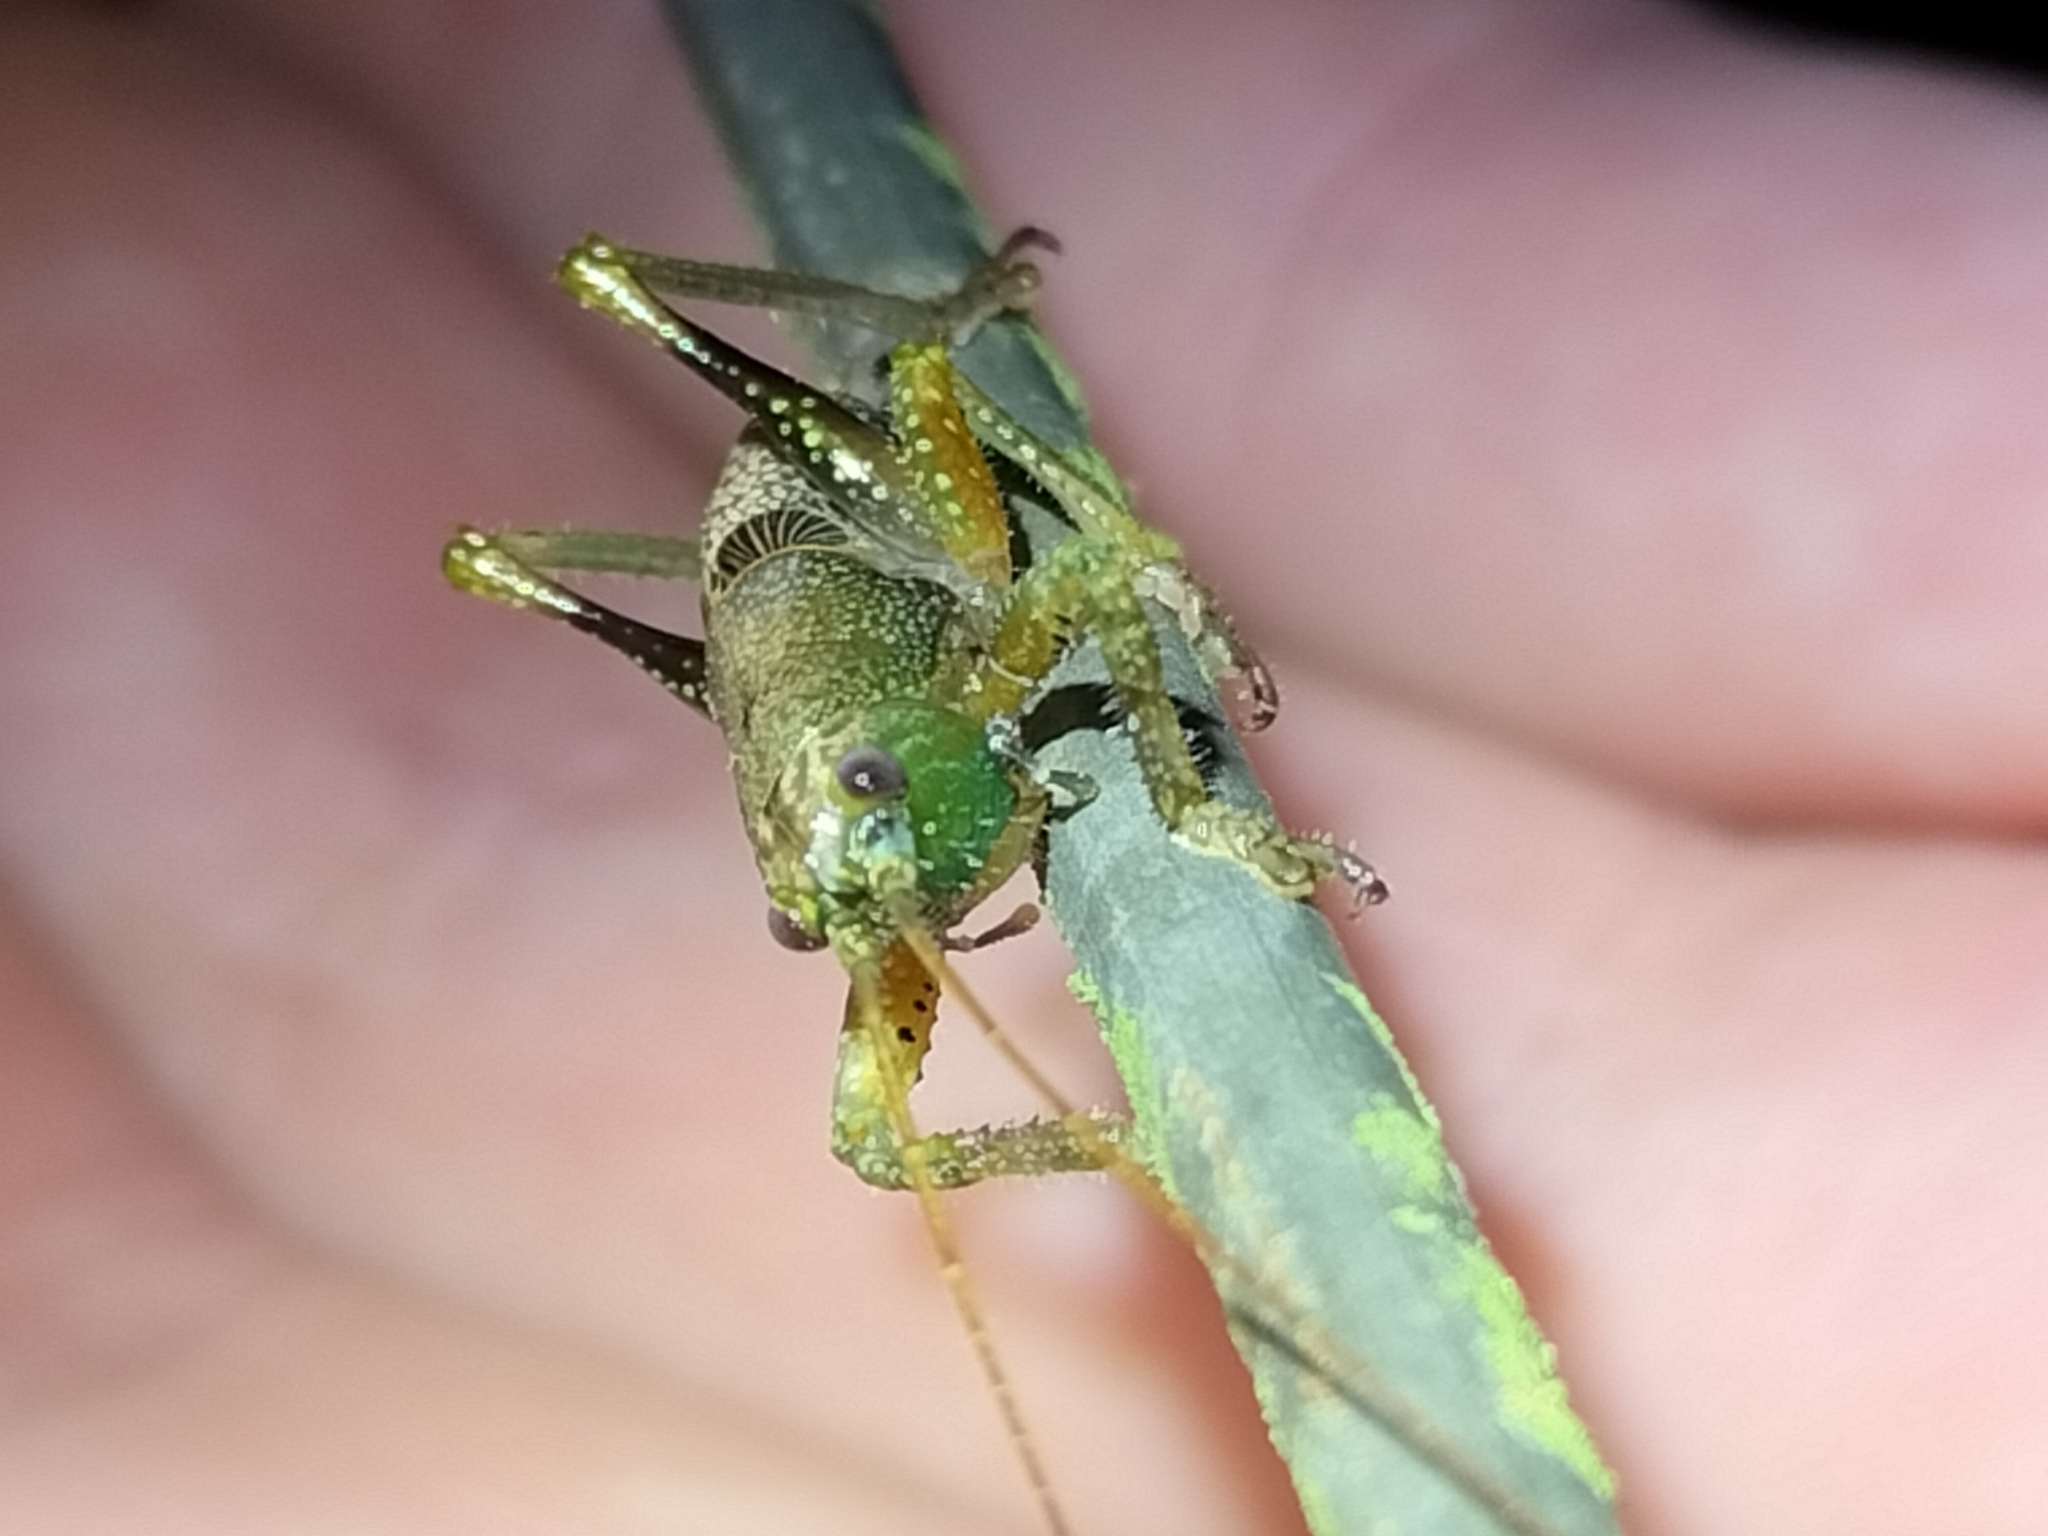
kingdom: Animalia
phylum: Arthropoda
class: Insecta
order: Orthoptera
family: Tettigoniidae
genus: Ingrischagraecia
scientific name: Ingrischagraecia iterika
